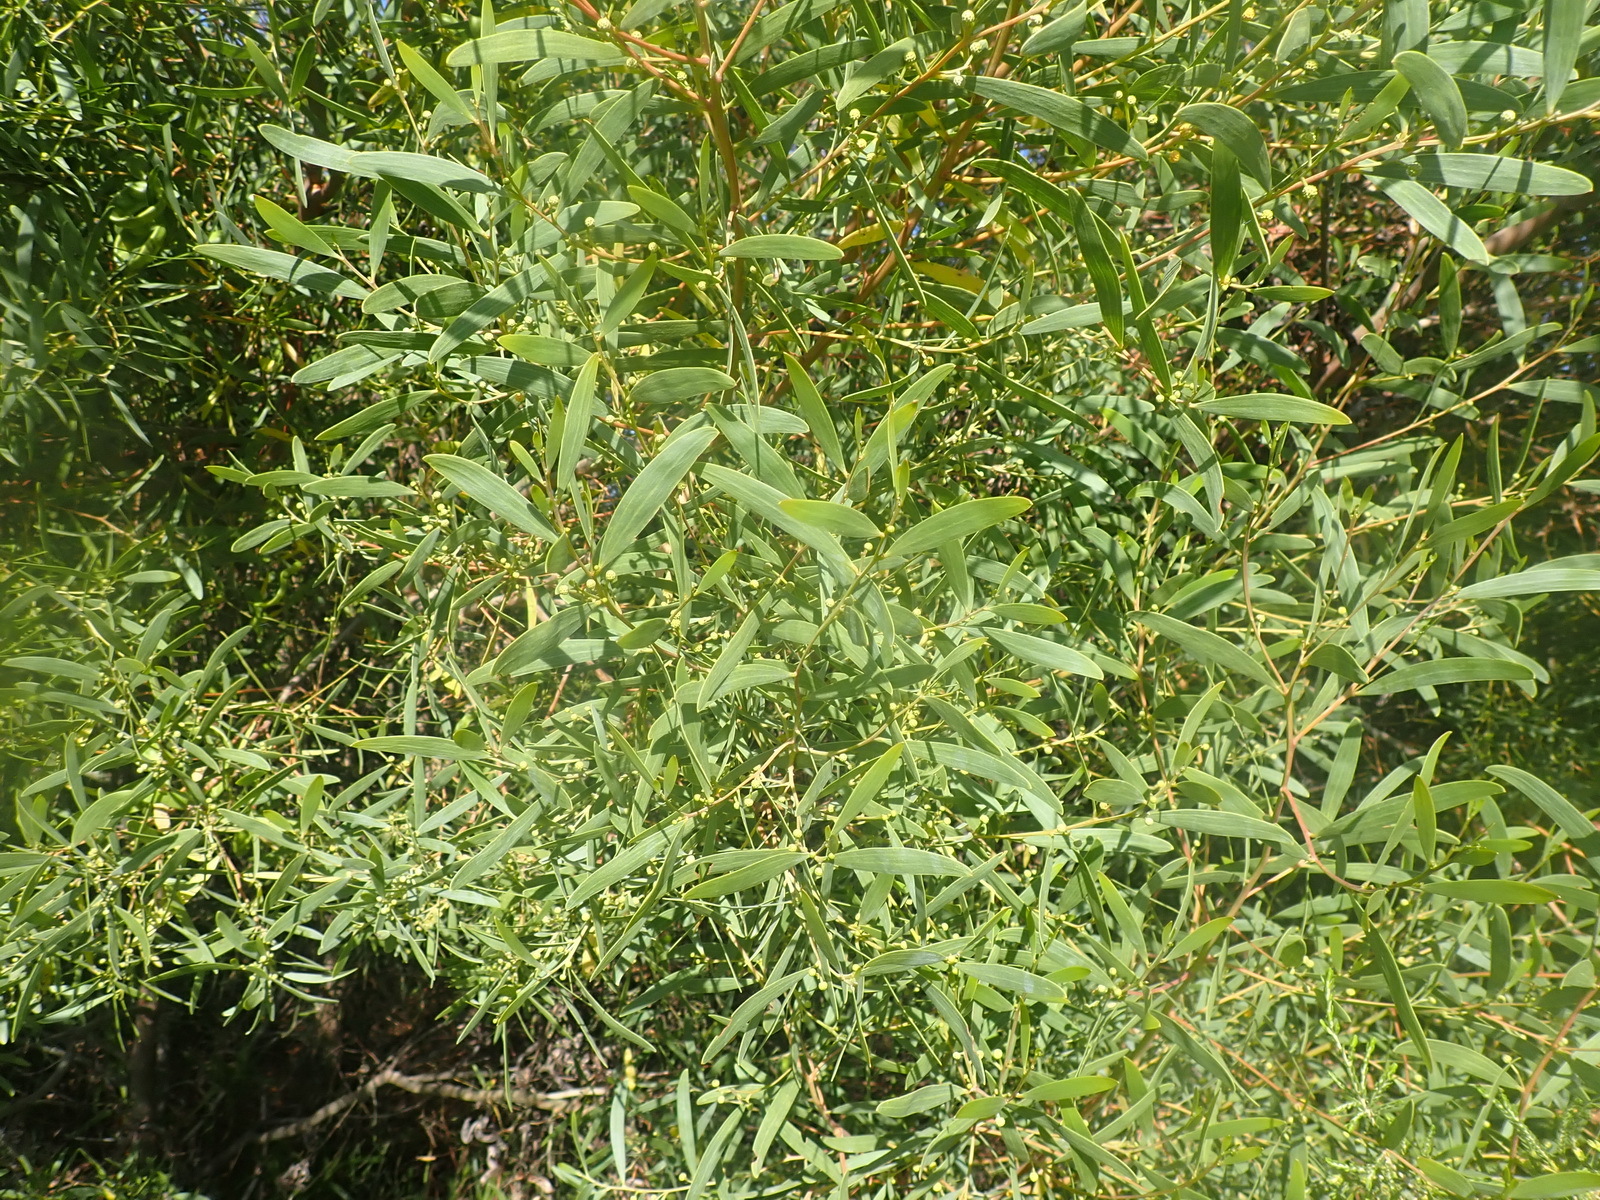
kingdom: Plantae
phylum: Tracheophyta
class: Magnoliopsida
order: Fabales
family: Fabaceae
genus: Acacia
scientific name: Acacia cyclops
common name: Coastal wattle
